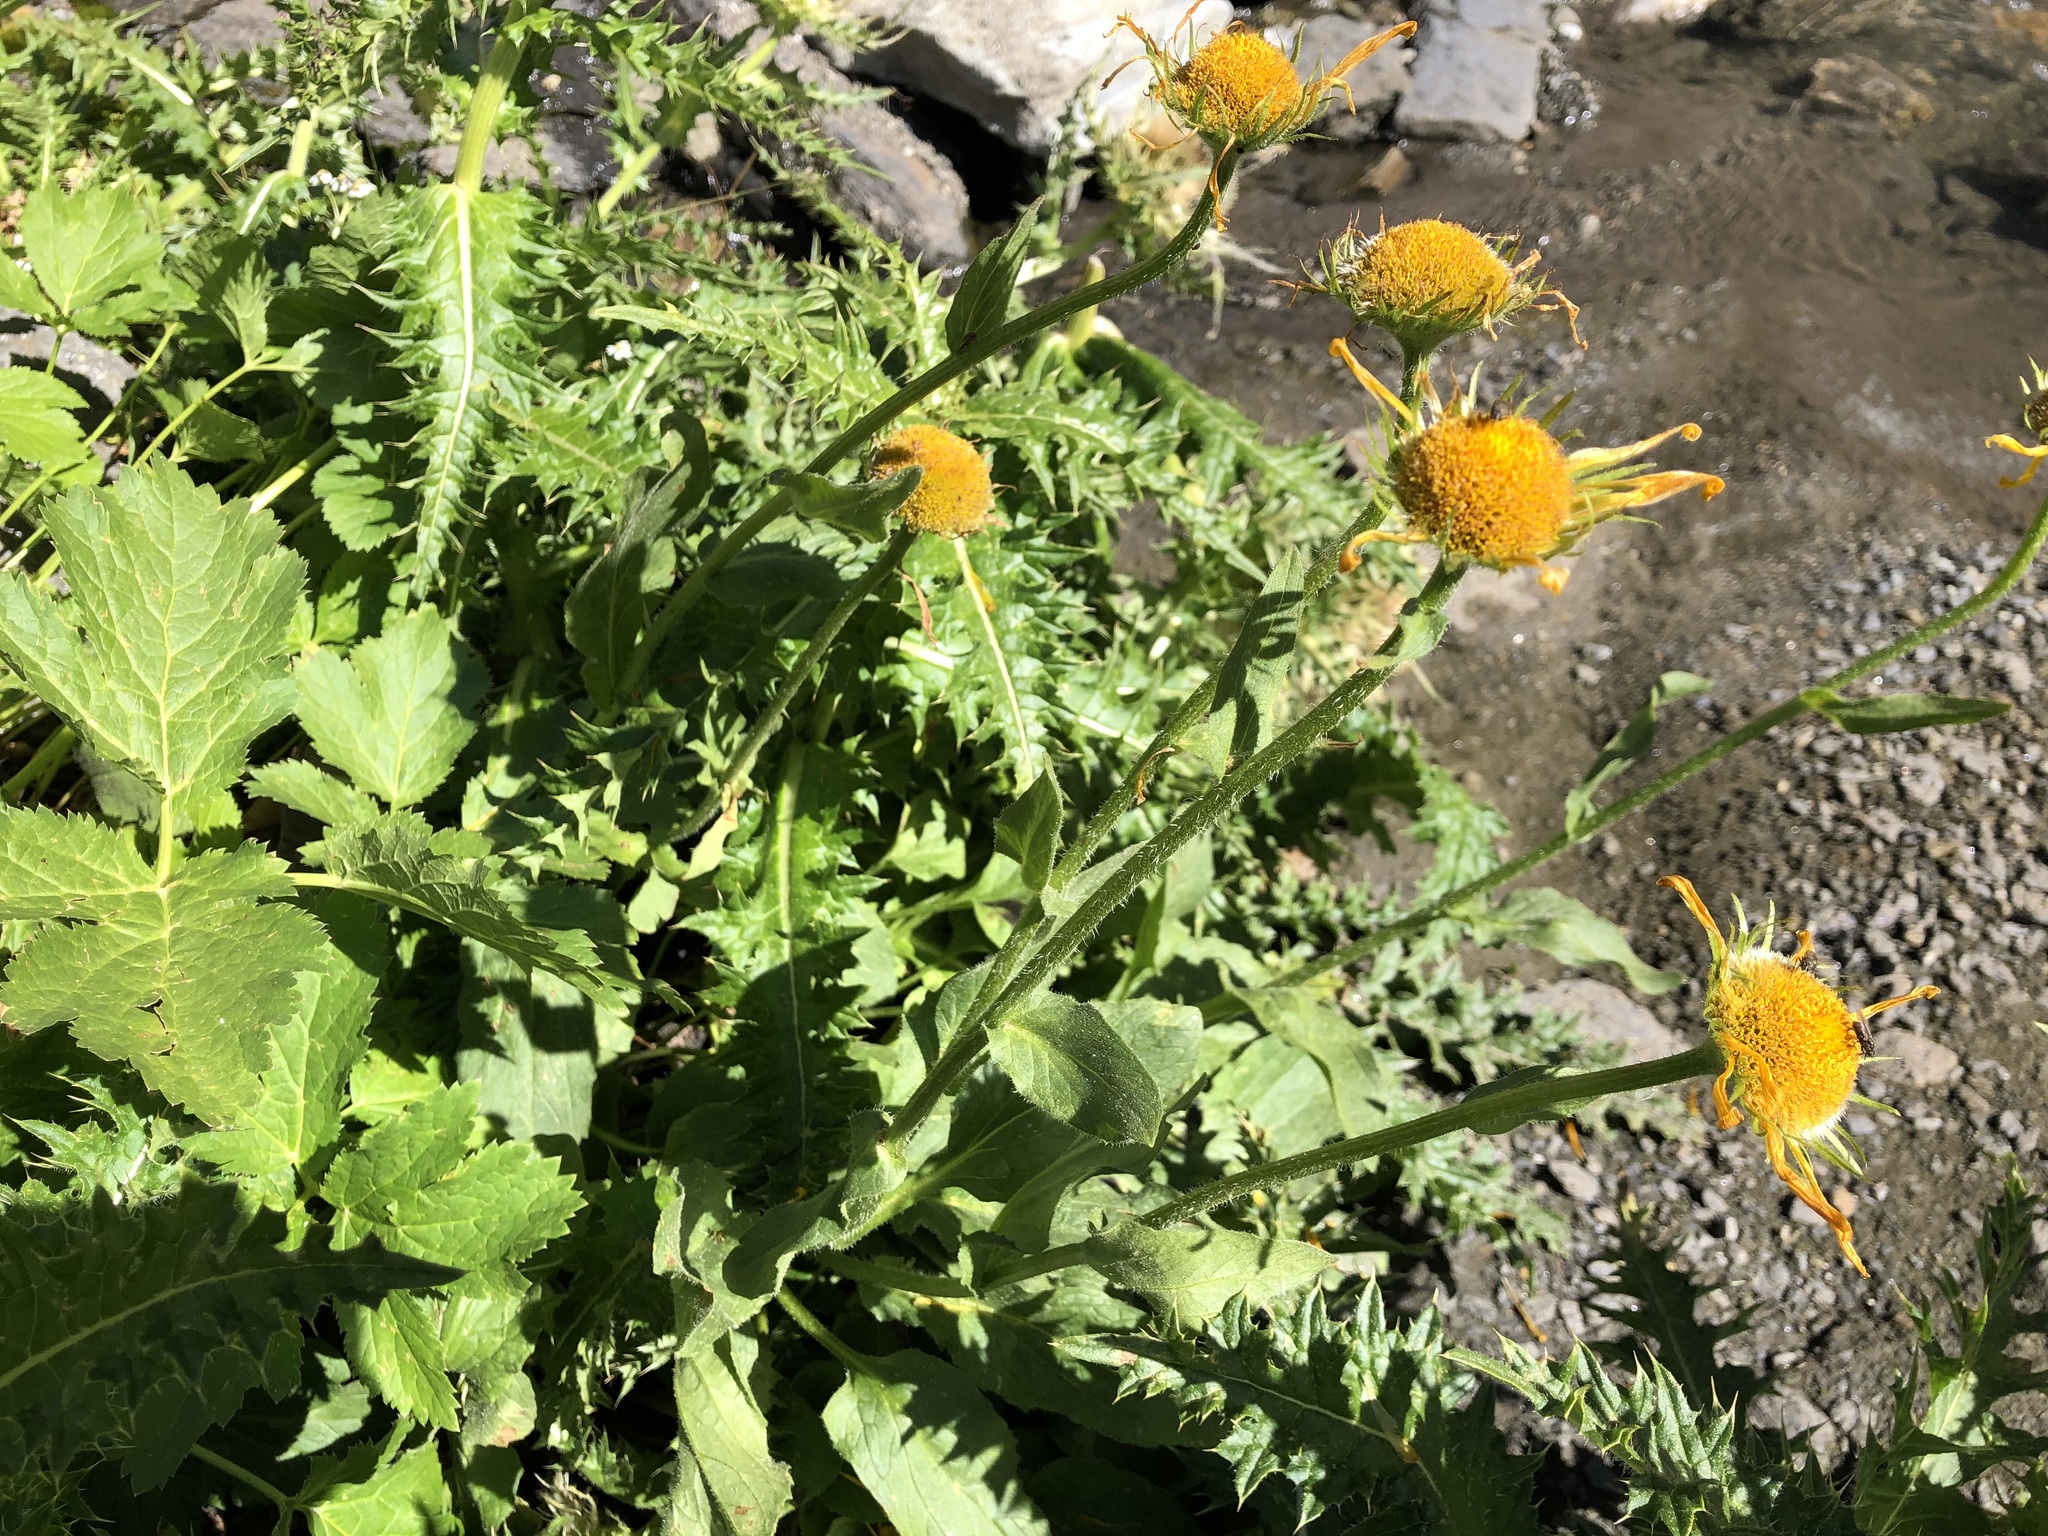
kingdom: Plantae
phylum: Tracheophyta
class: Magnoliopsida
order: Asterales
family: Asteraceae
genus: Doronicum
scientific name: Doronicum grandiflorum
